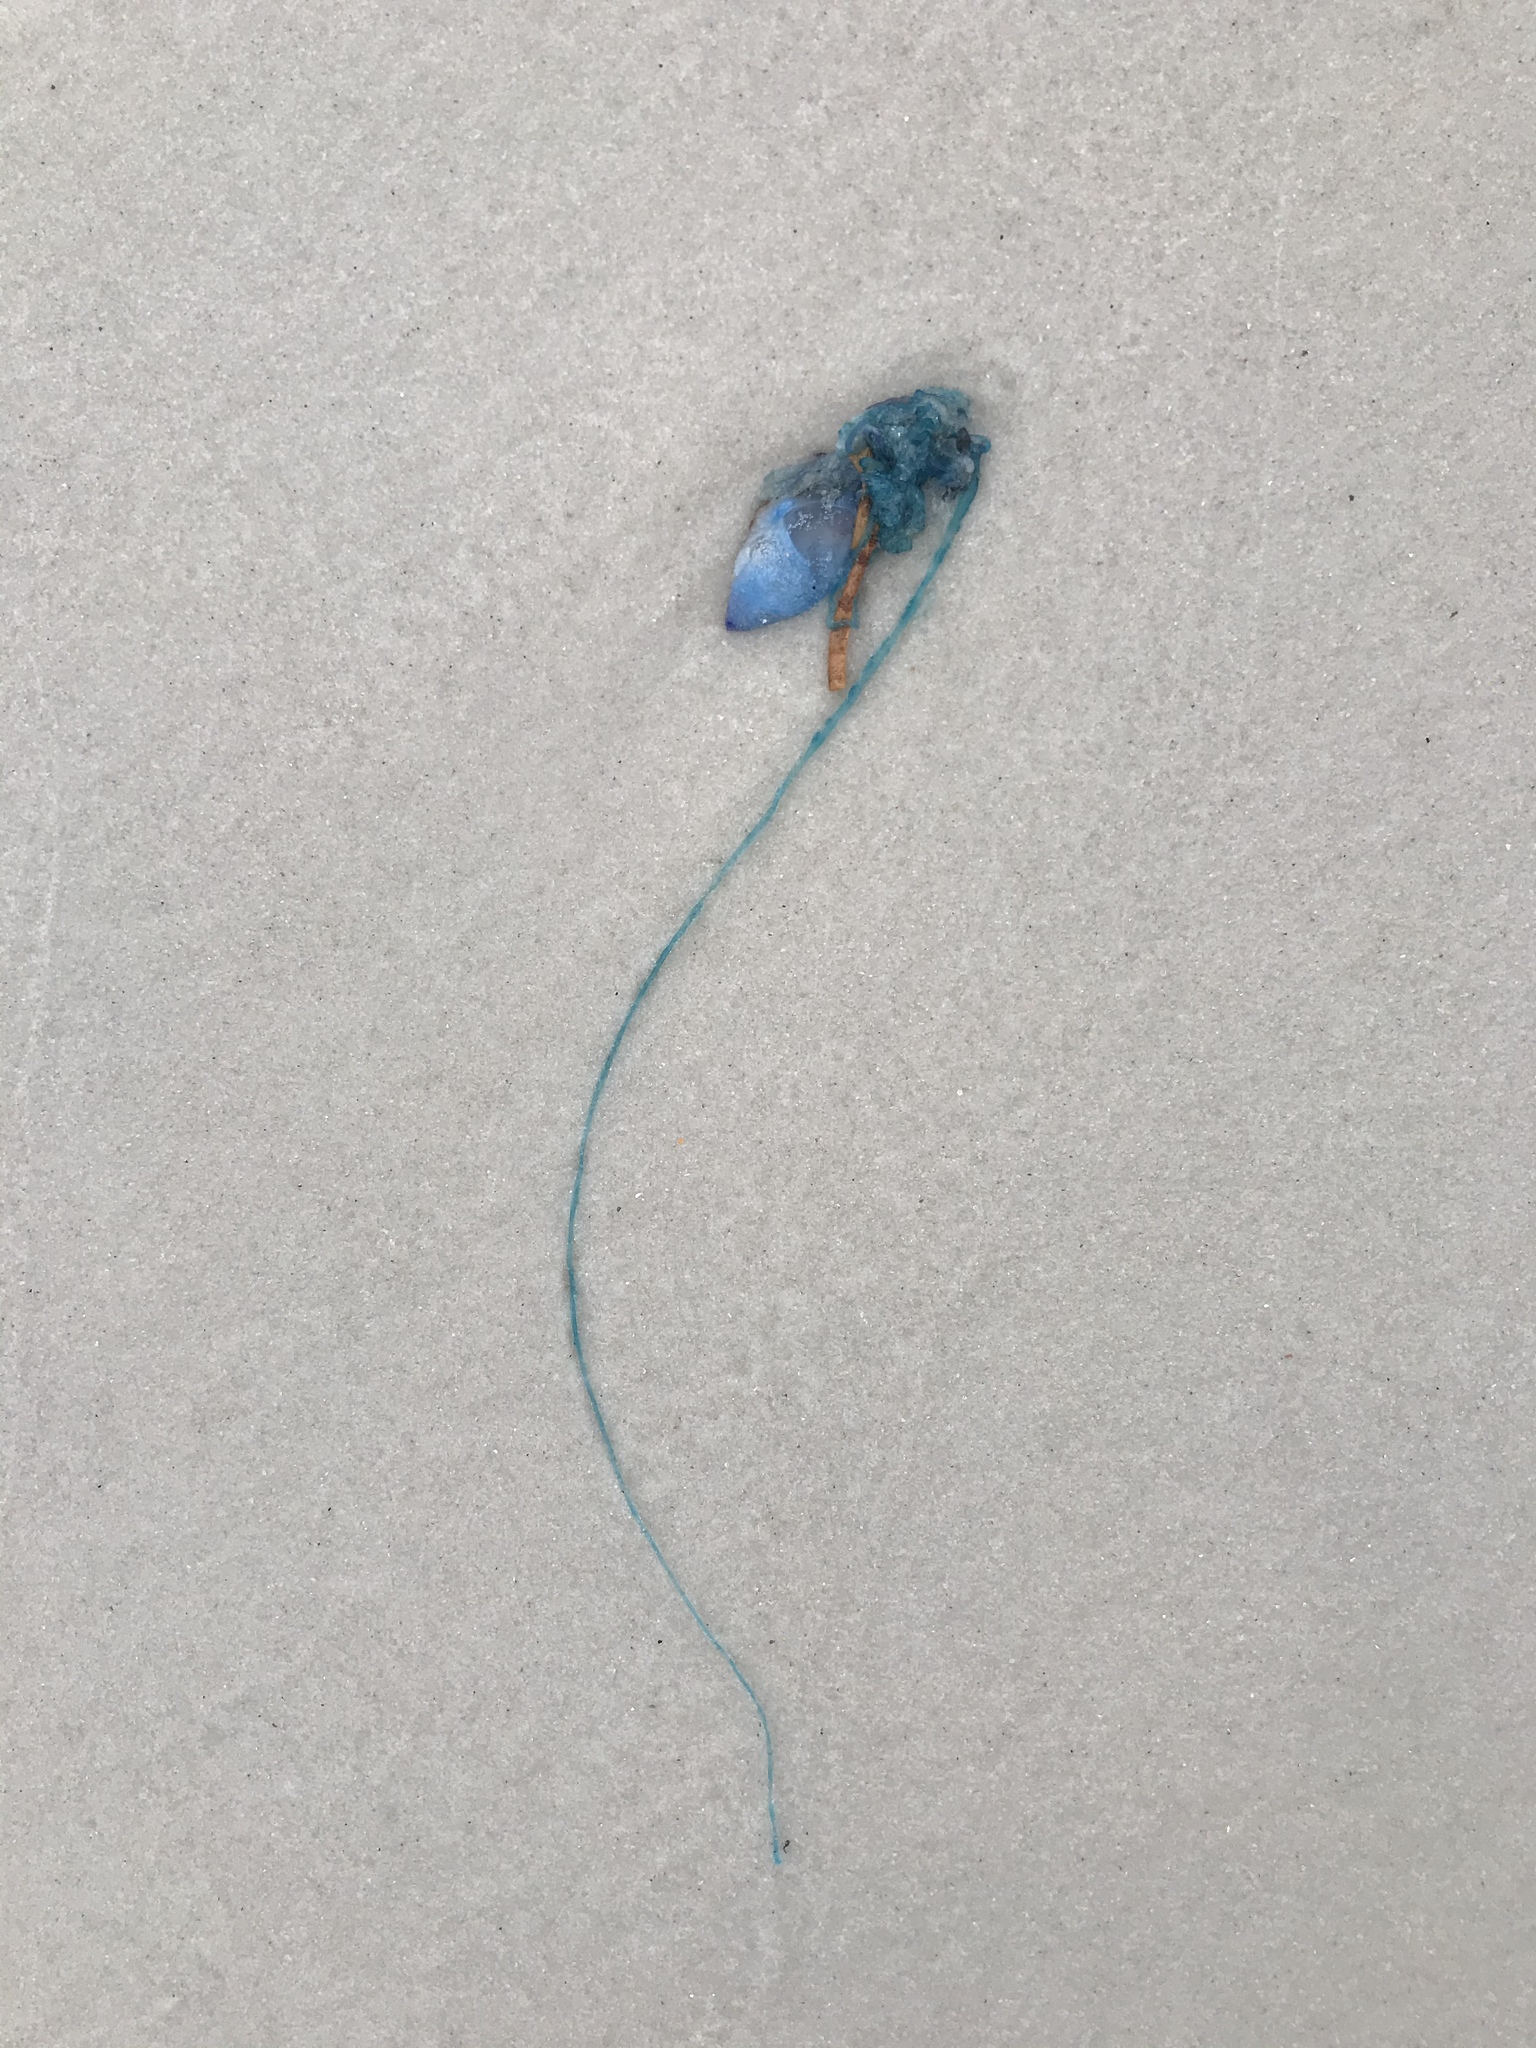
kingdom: Animalia
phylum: Cnidaria
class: Hydrozoa
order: Siphonophorae
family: Physaliidae
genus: Physalia
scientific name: Physalia physalis
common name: Portuguese man-of-war
